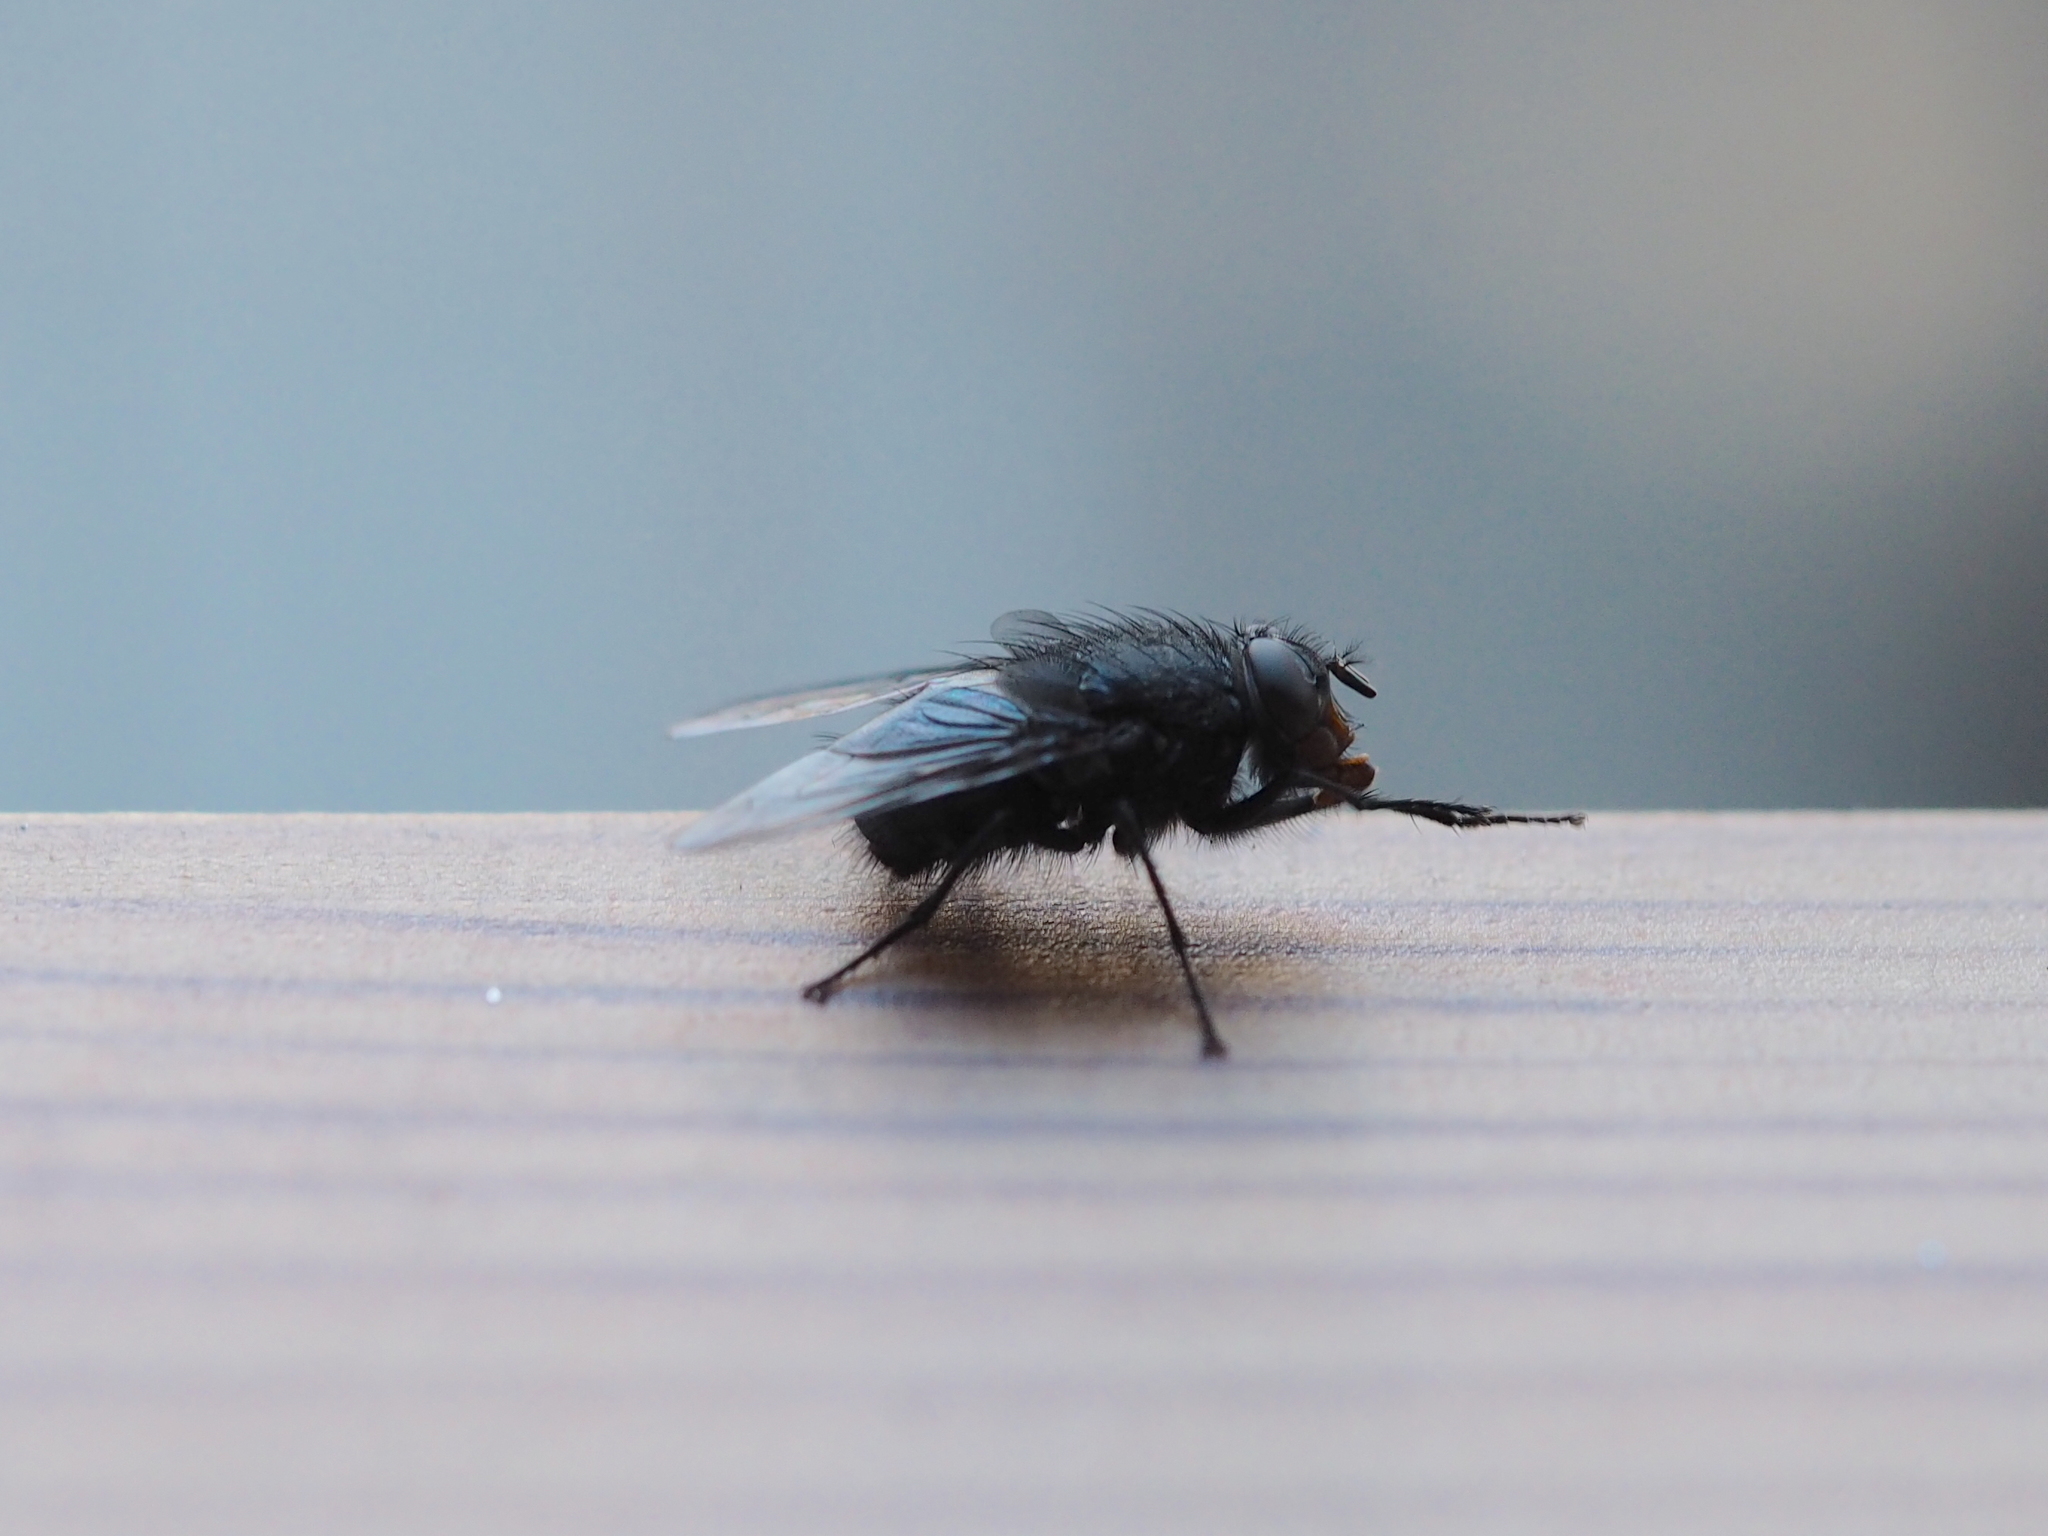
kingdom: Animalia
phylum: Arthropoda
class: Insecta
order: Diptera
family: Calliphoridae
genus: Calliphora
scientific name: Calliphora vicina
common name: Common blow flie
